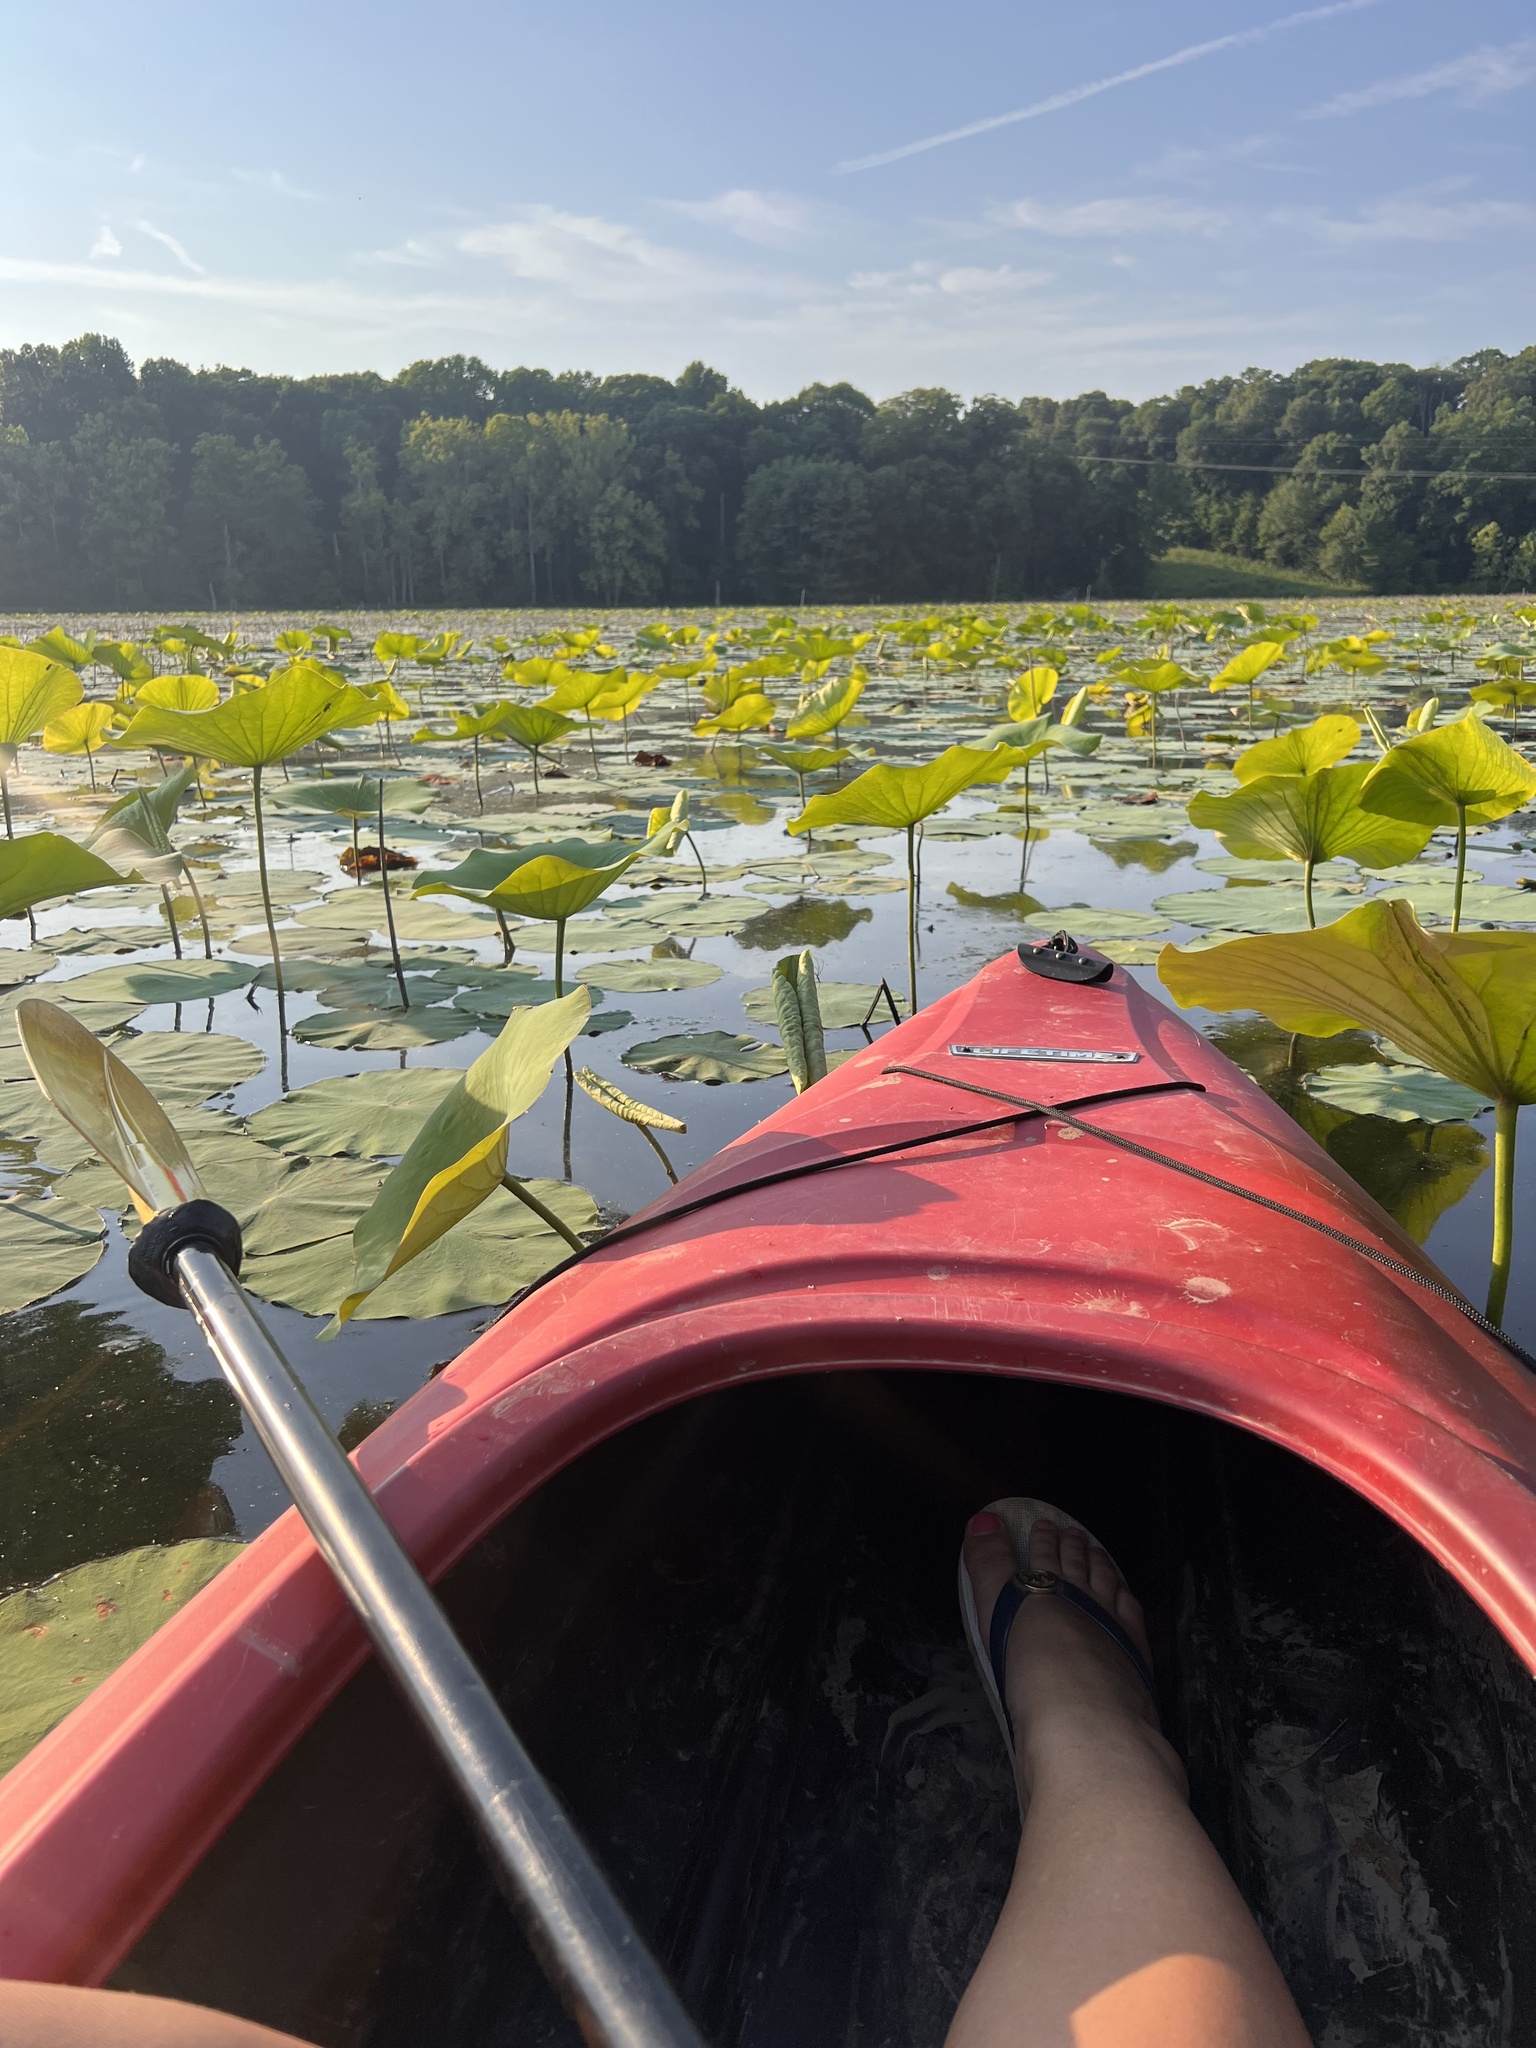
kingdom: Plantae
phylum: Tracheophyta
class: Magnoliopsida
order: Proteales
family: Nelumbonaceae
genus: Nelumbo
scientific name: Nelumbo lutea
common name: American lotus
